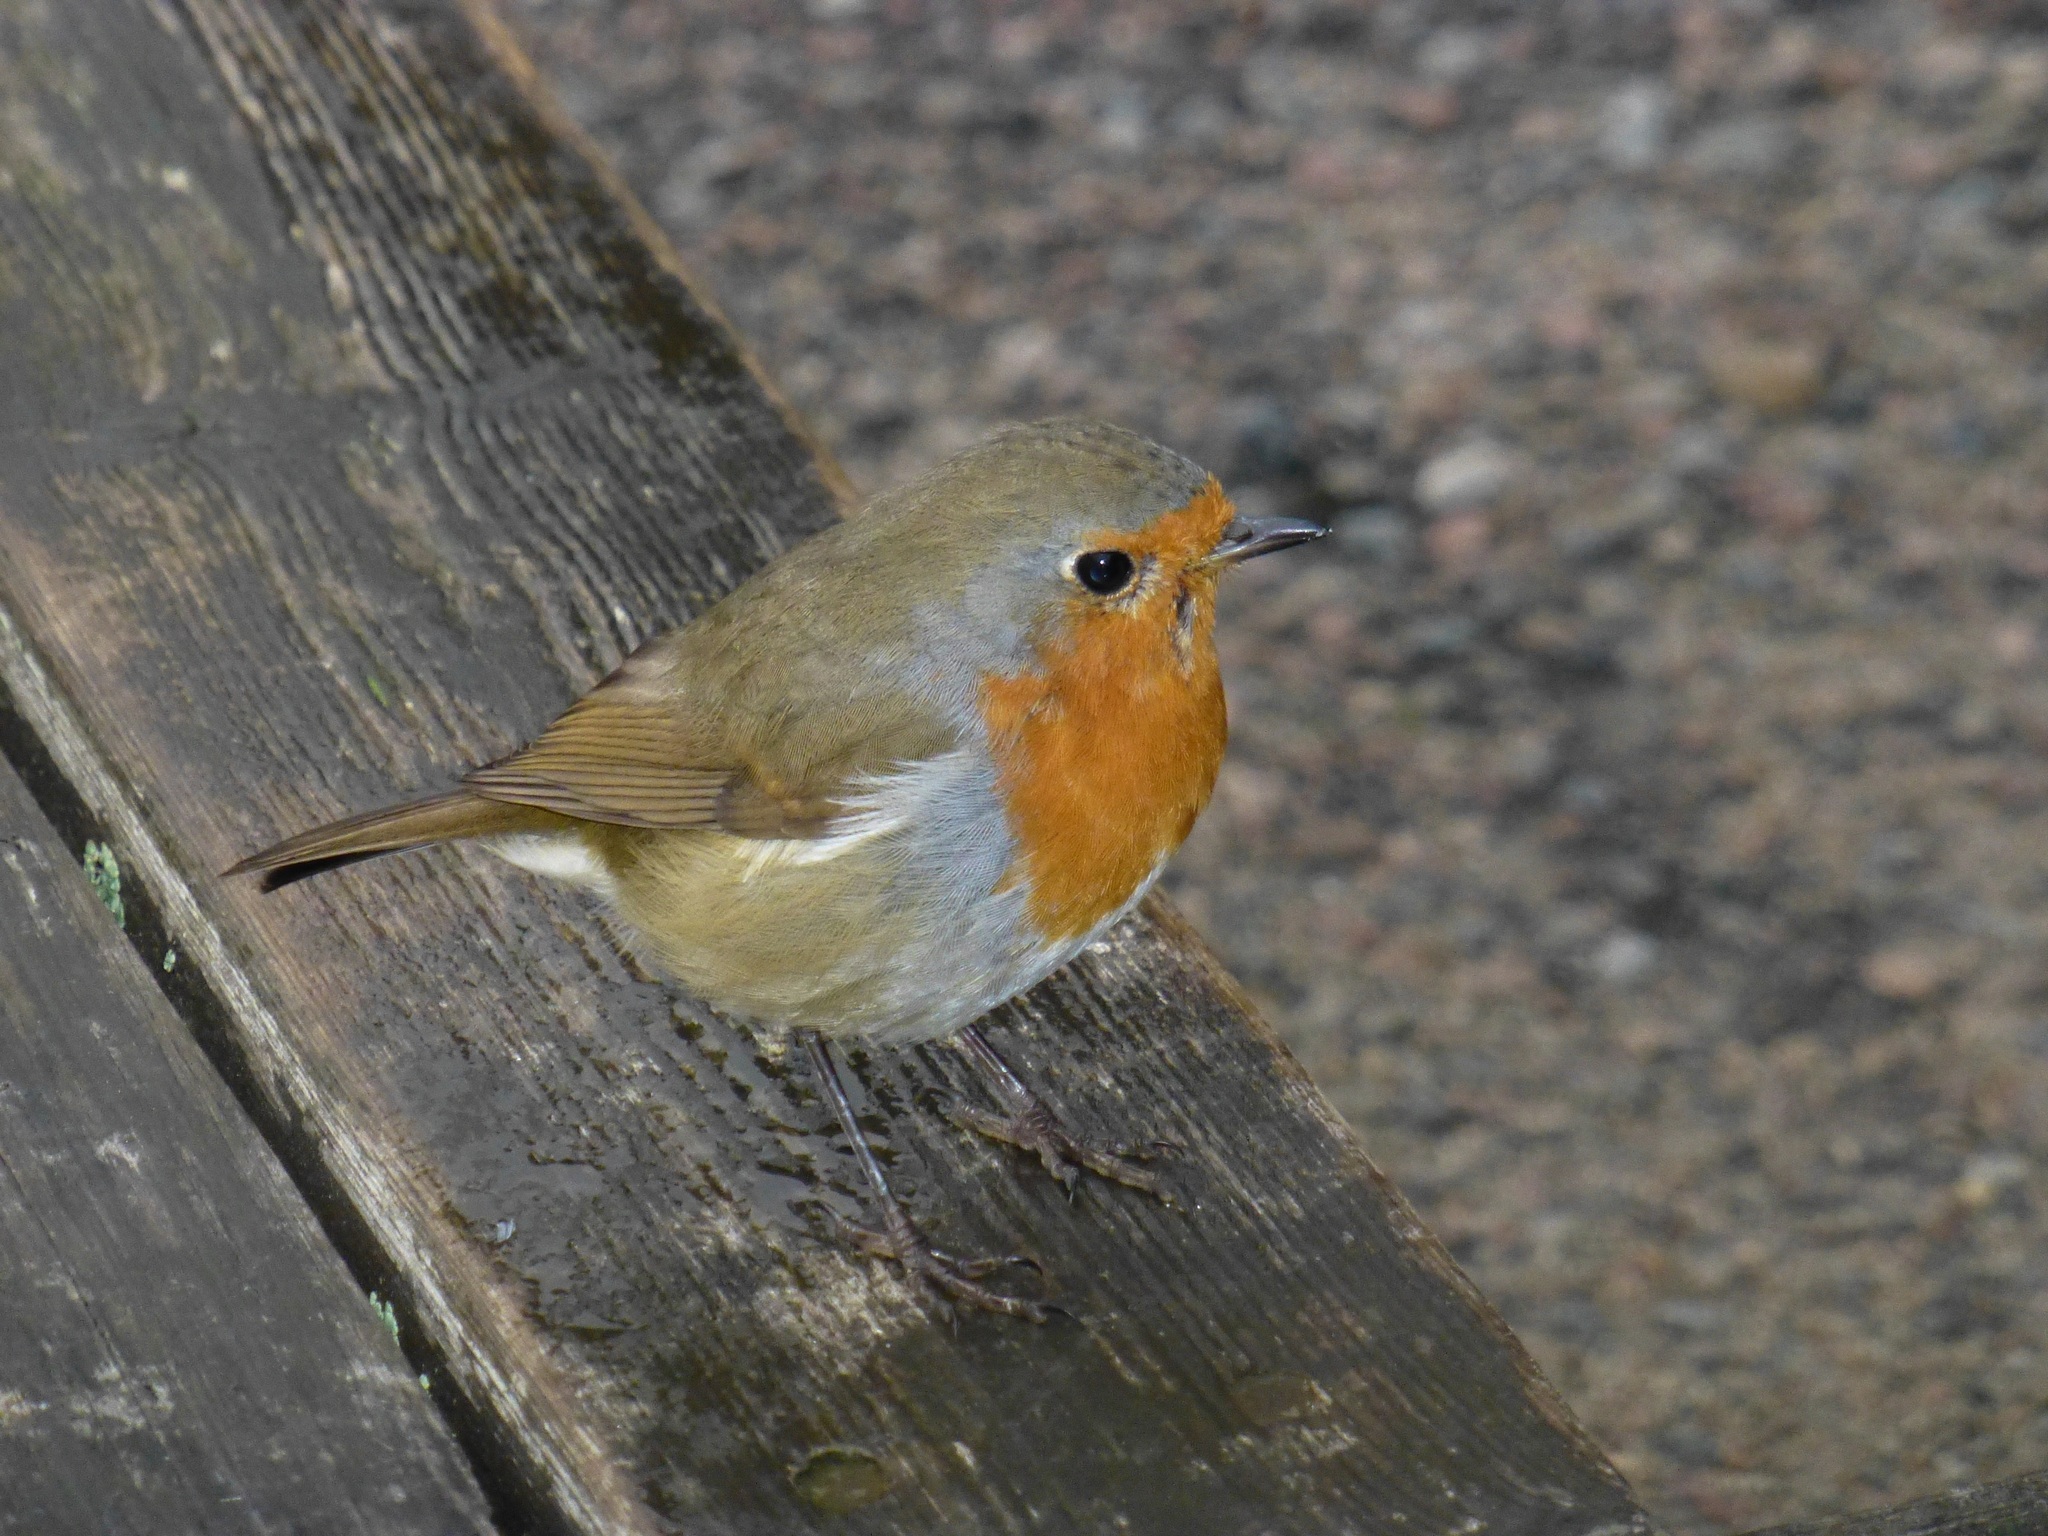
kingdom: Animalia
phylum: Chordata
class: Aves
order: Passeriformes
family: Muscicapidae
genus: Erithacus
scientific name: Erithacus rubecula
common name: European robin
